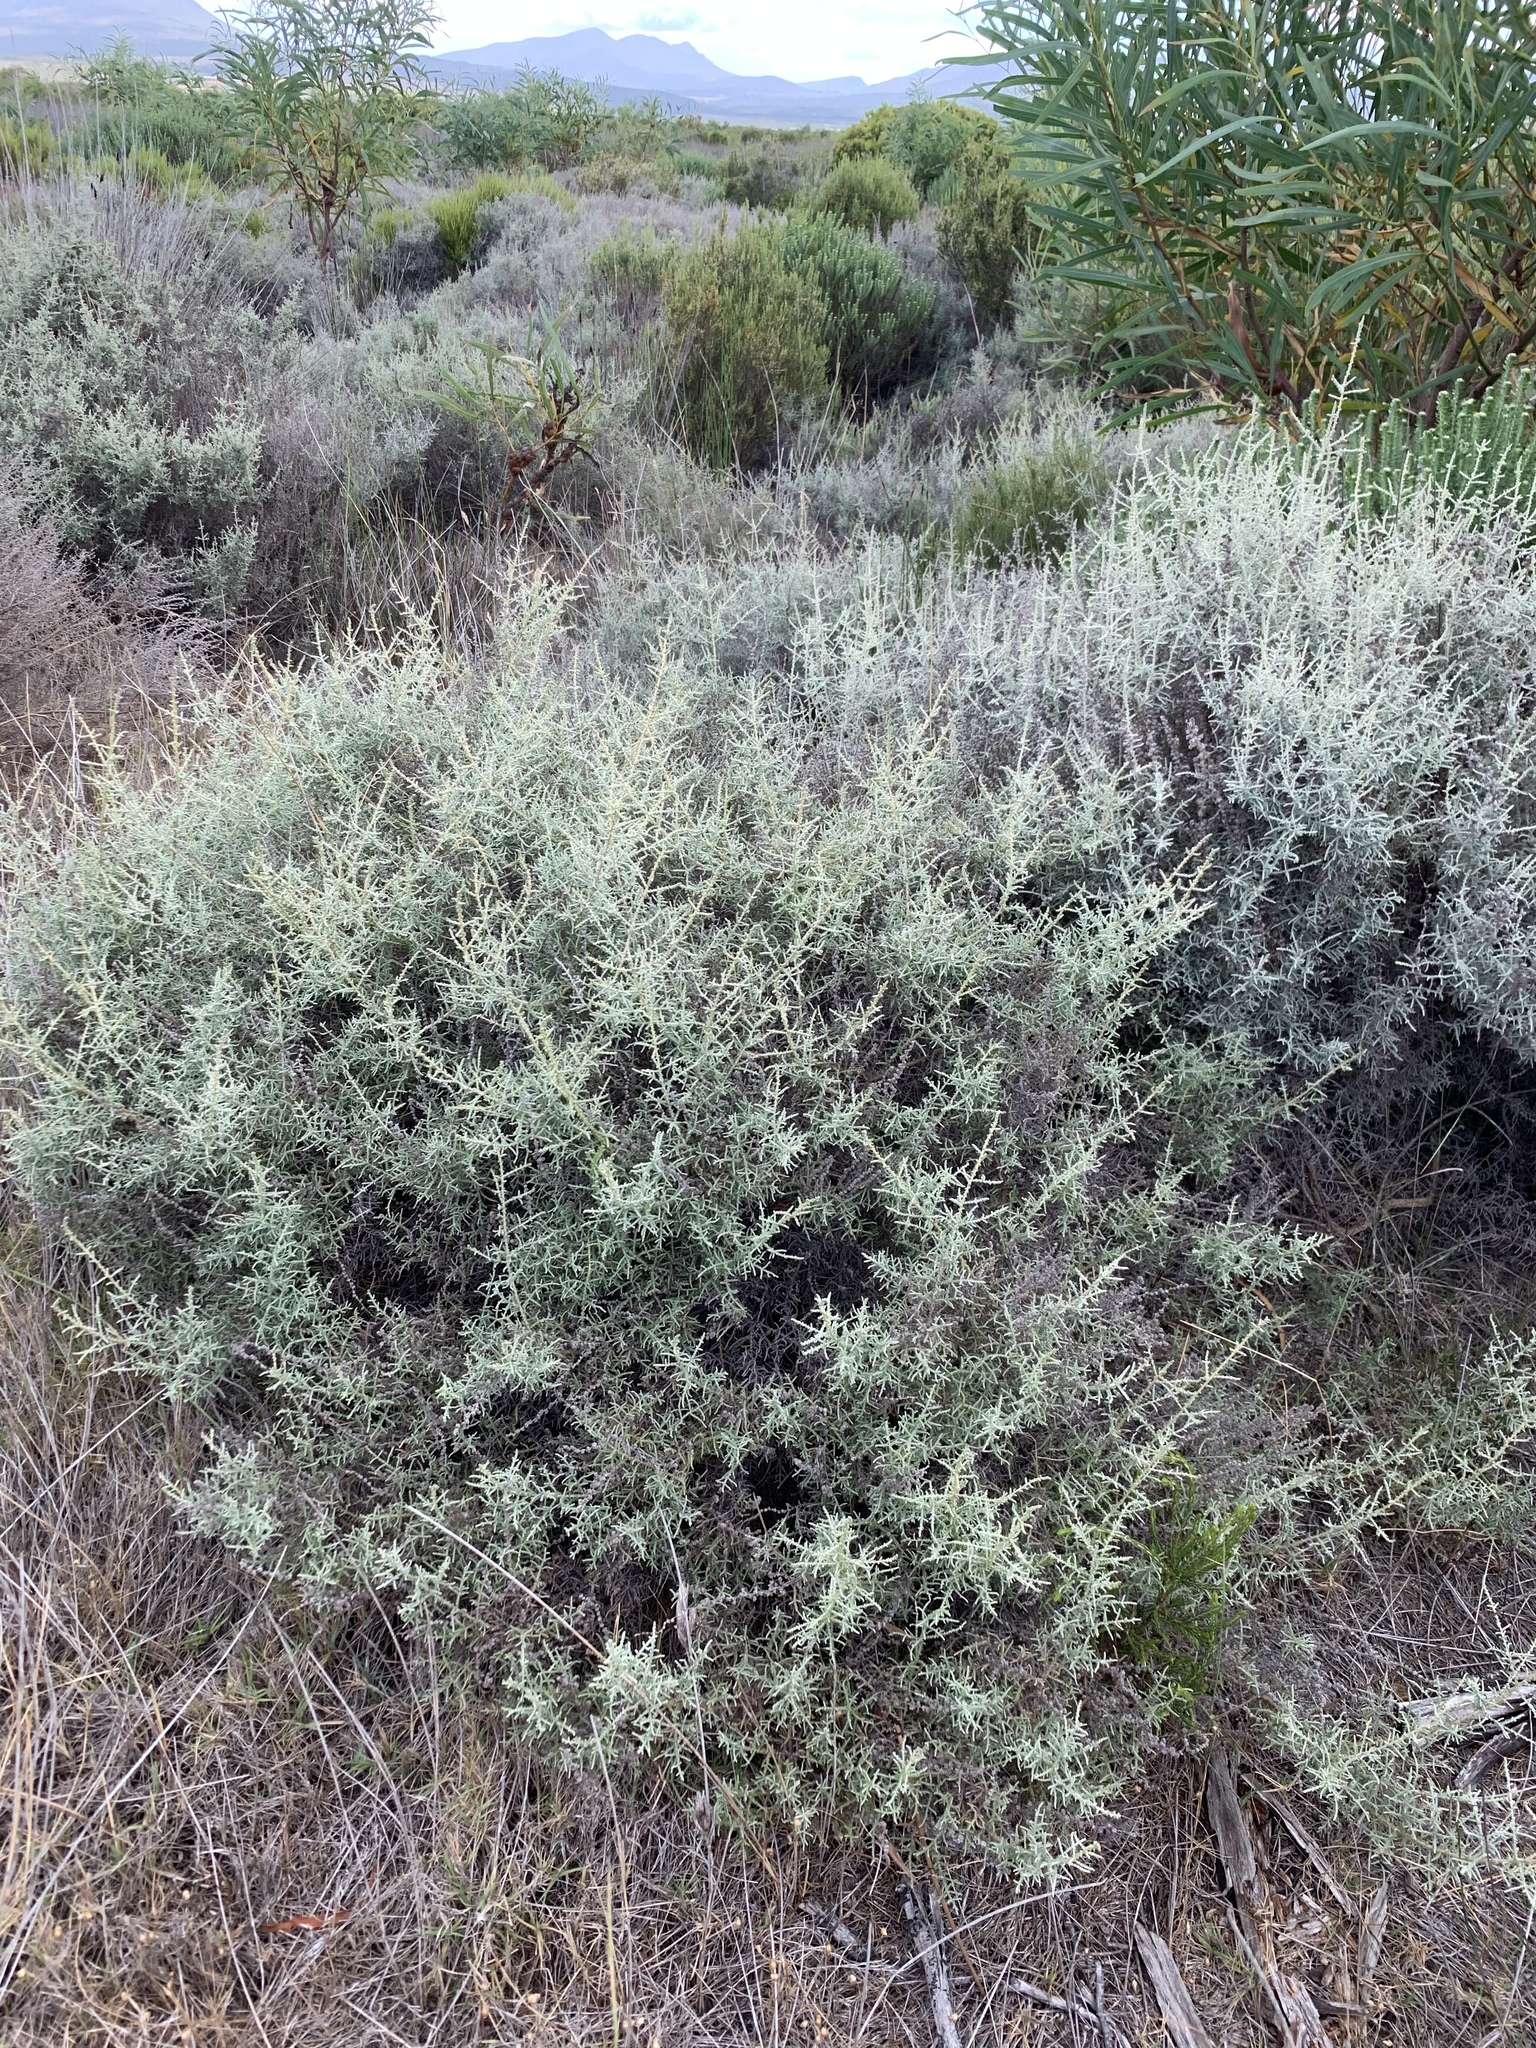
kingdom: Plantae
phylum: Tracheophyta
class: Magnoliopsida
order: Asterales
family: Asteraceae
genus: Seriphium
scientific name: Seriphium plumosum
